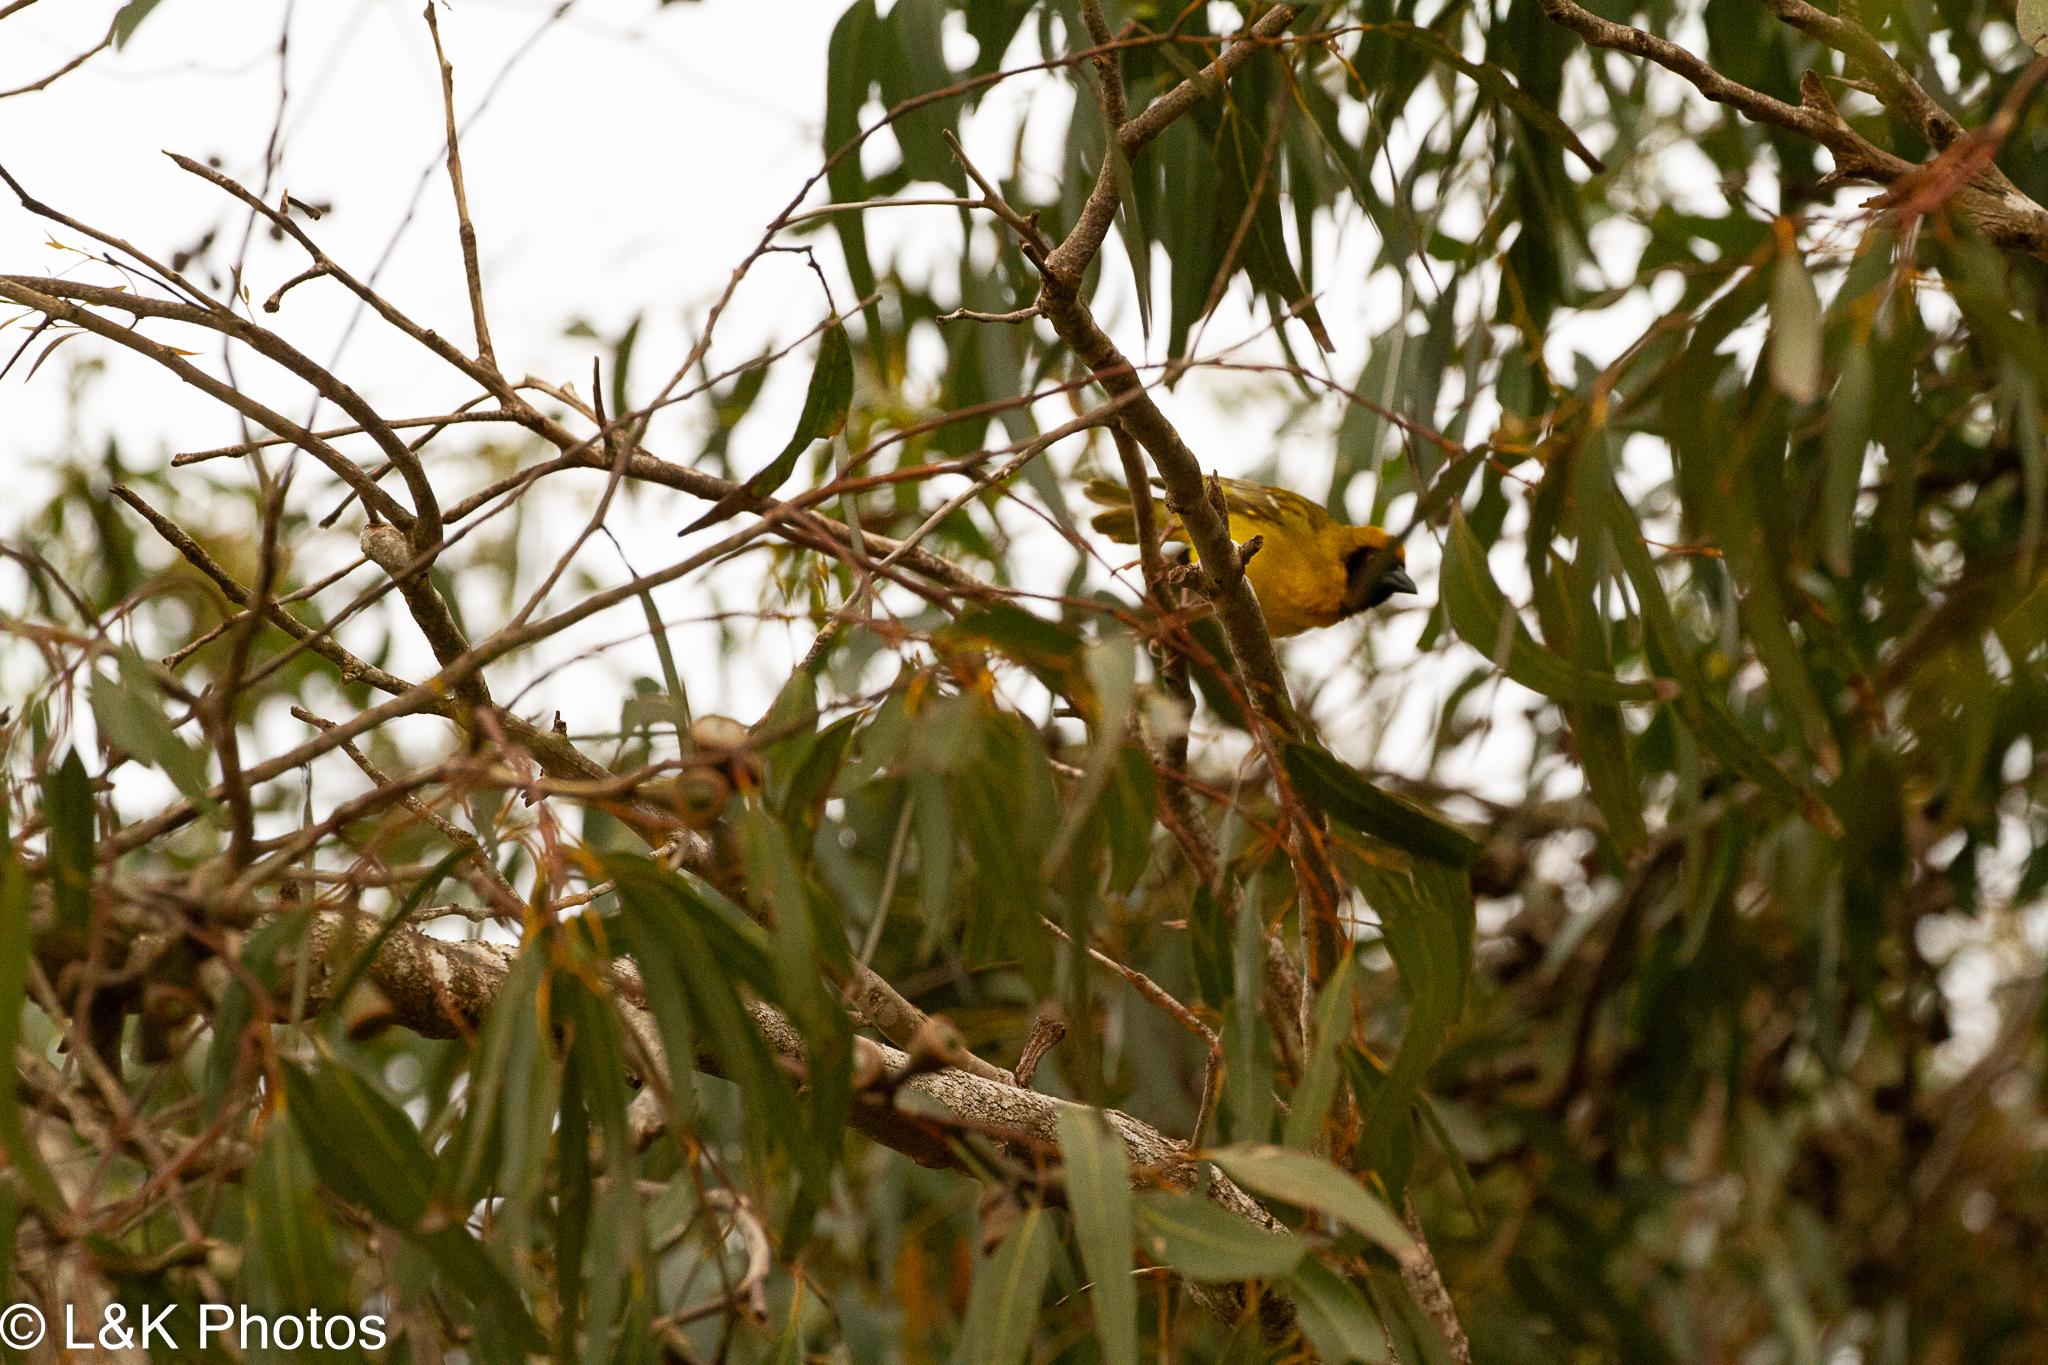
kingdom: Animalia
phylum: Chordata
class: Aves
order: Passeriformes
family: Ploceidae
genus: Ploceus
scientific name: Ploceus velatus
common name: Southern masked weaver
